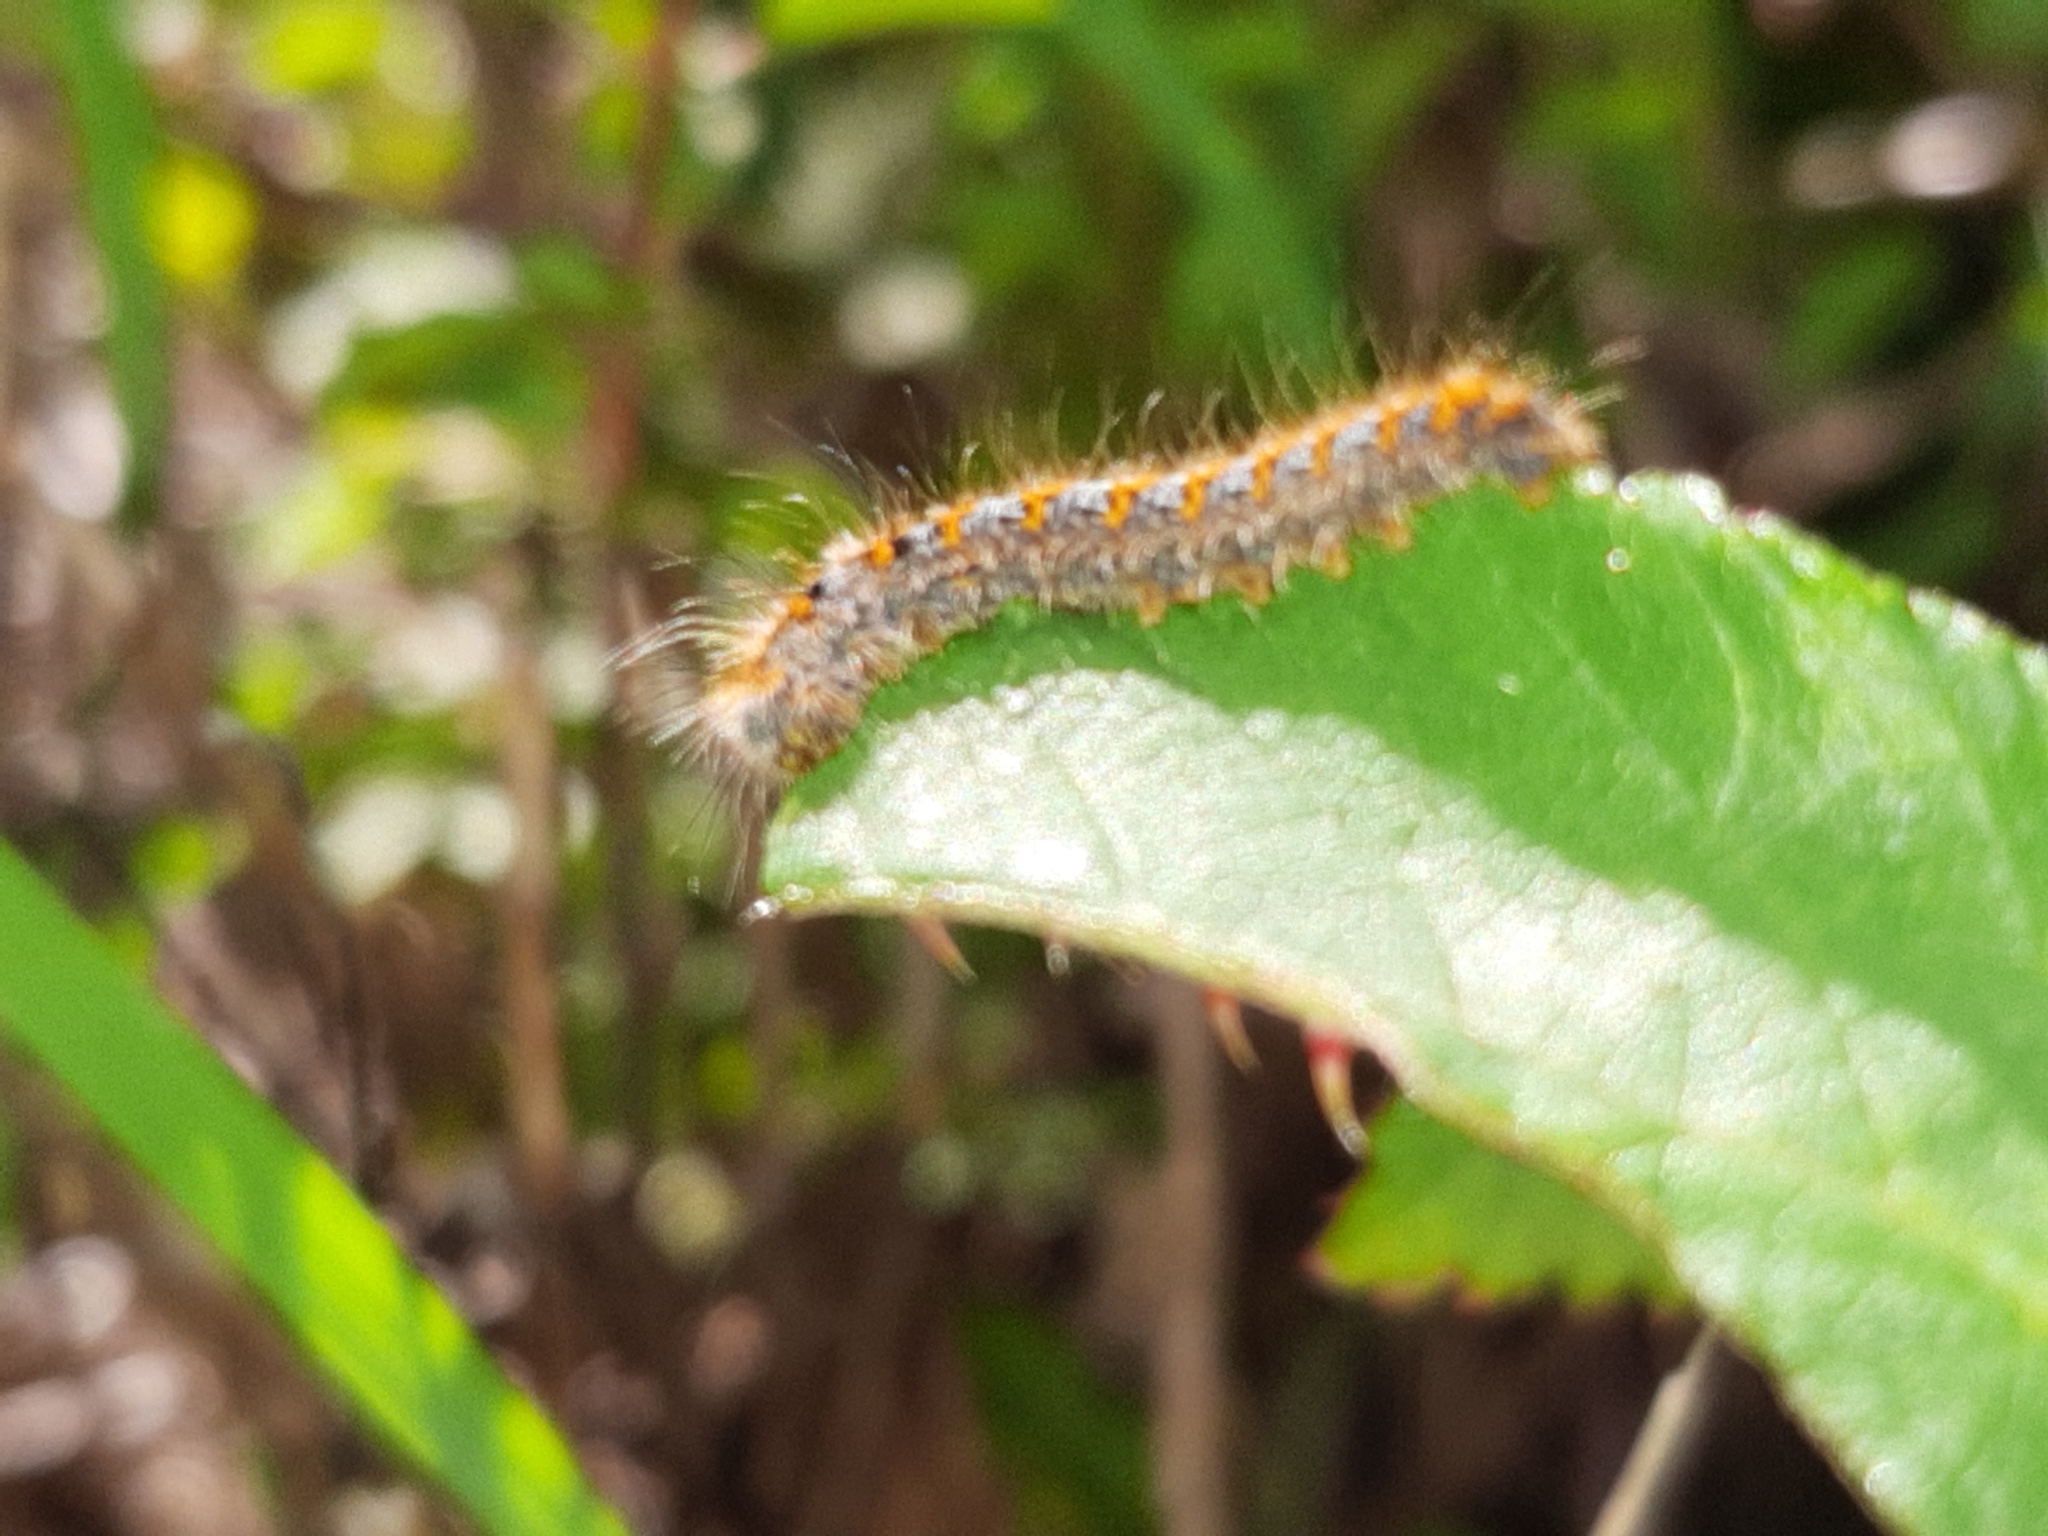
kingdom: Animalia
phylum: Arthropoda
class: Insecta
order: Lepidoptera
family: Lasiocampidae
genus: Lasiocampa
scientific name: Lasiocampa quercus
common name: Oak eggar
